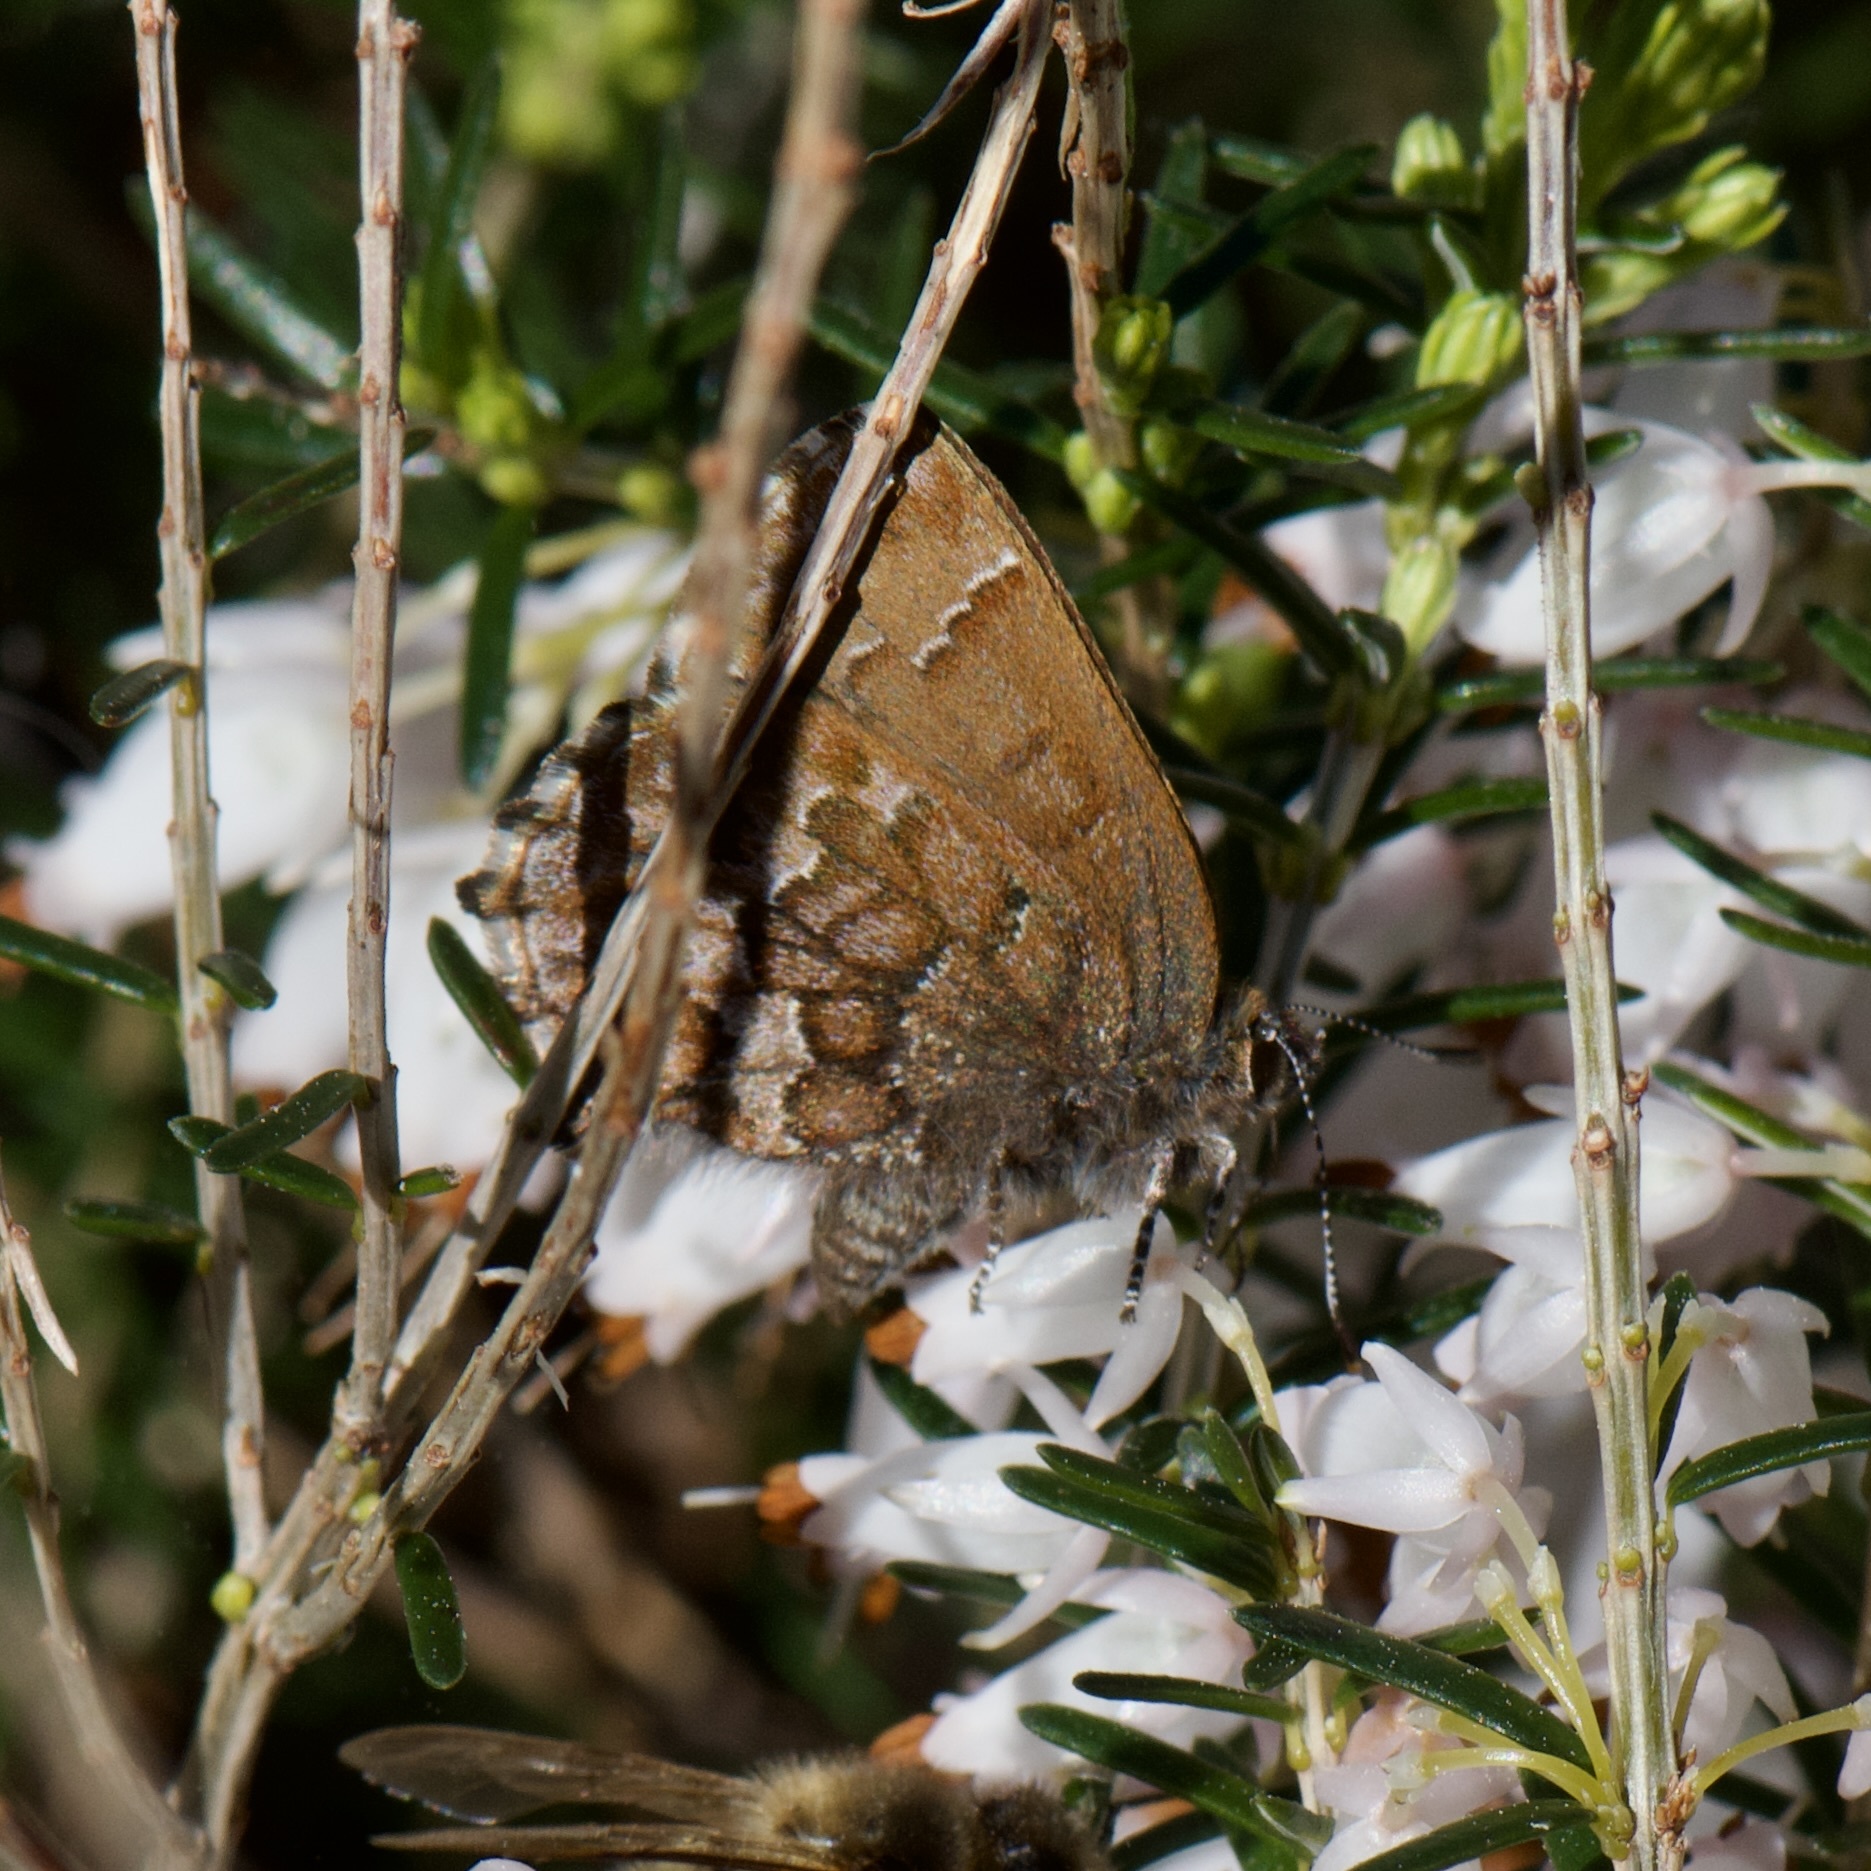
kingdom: Animalia
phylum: Arthropoda
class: Insecta
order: Lepidoptera
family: Lycaenidae
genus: Incisalia
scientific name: Incisalia niphon
